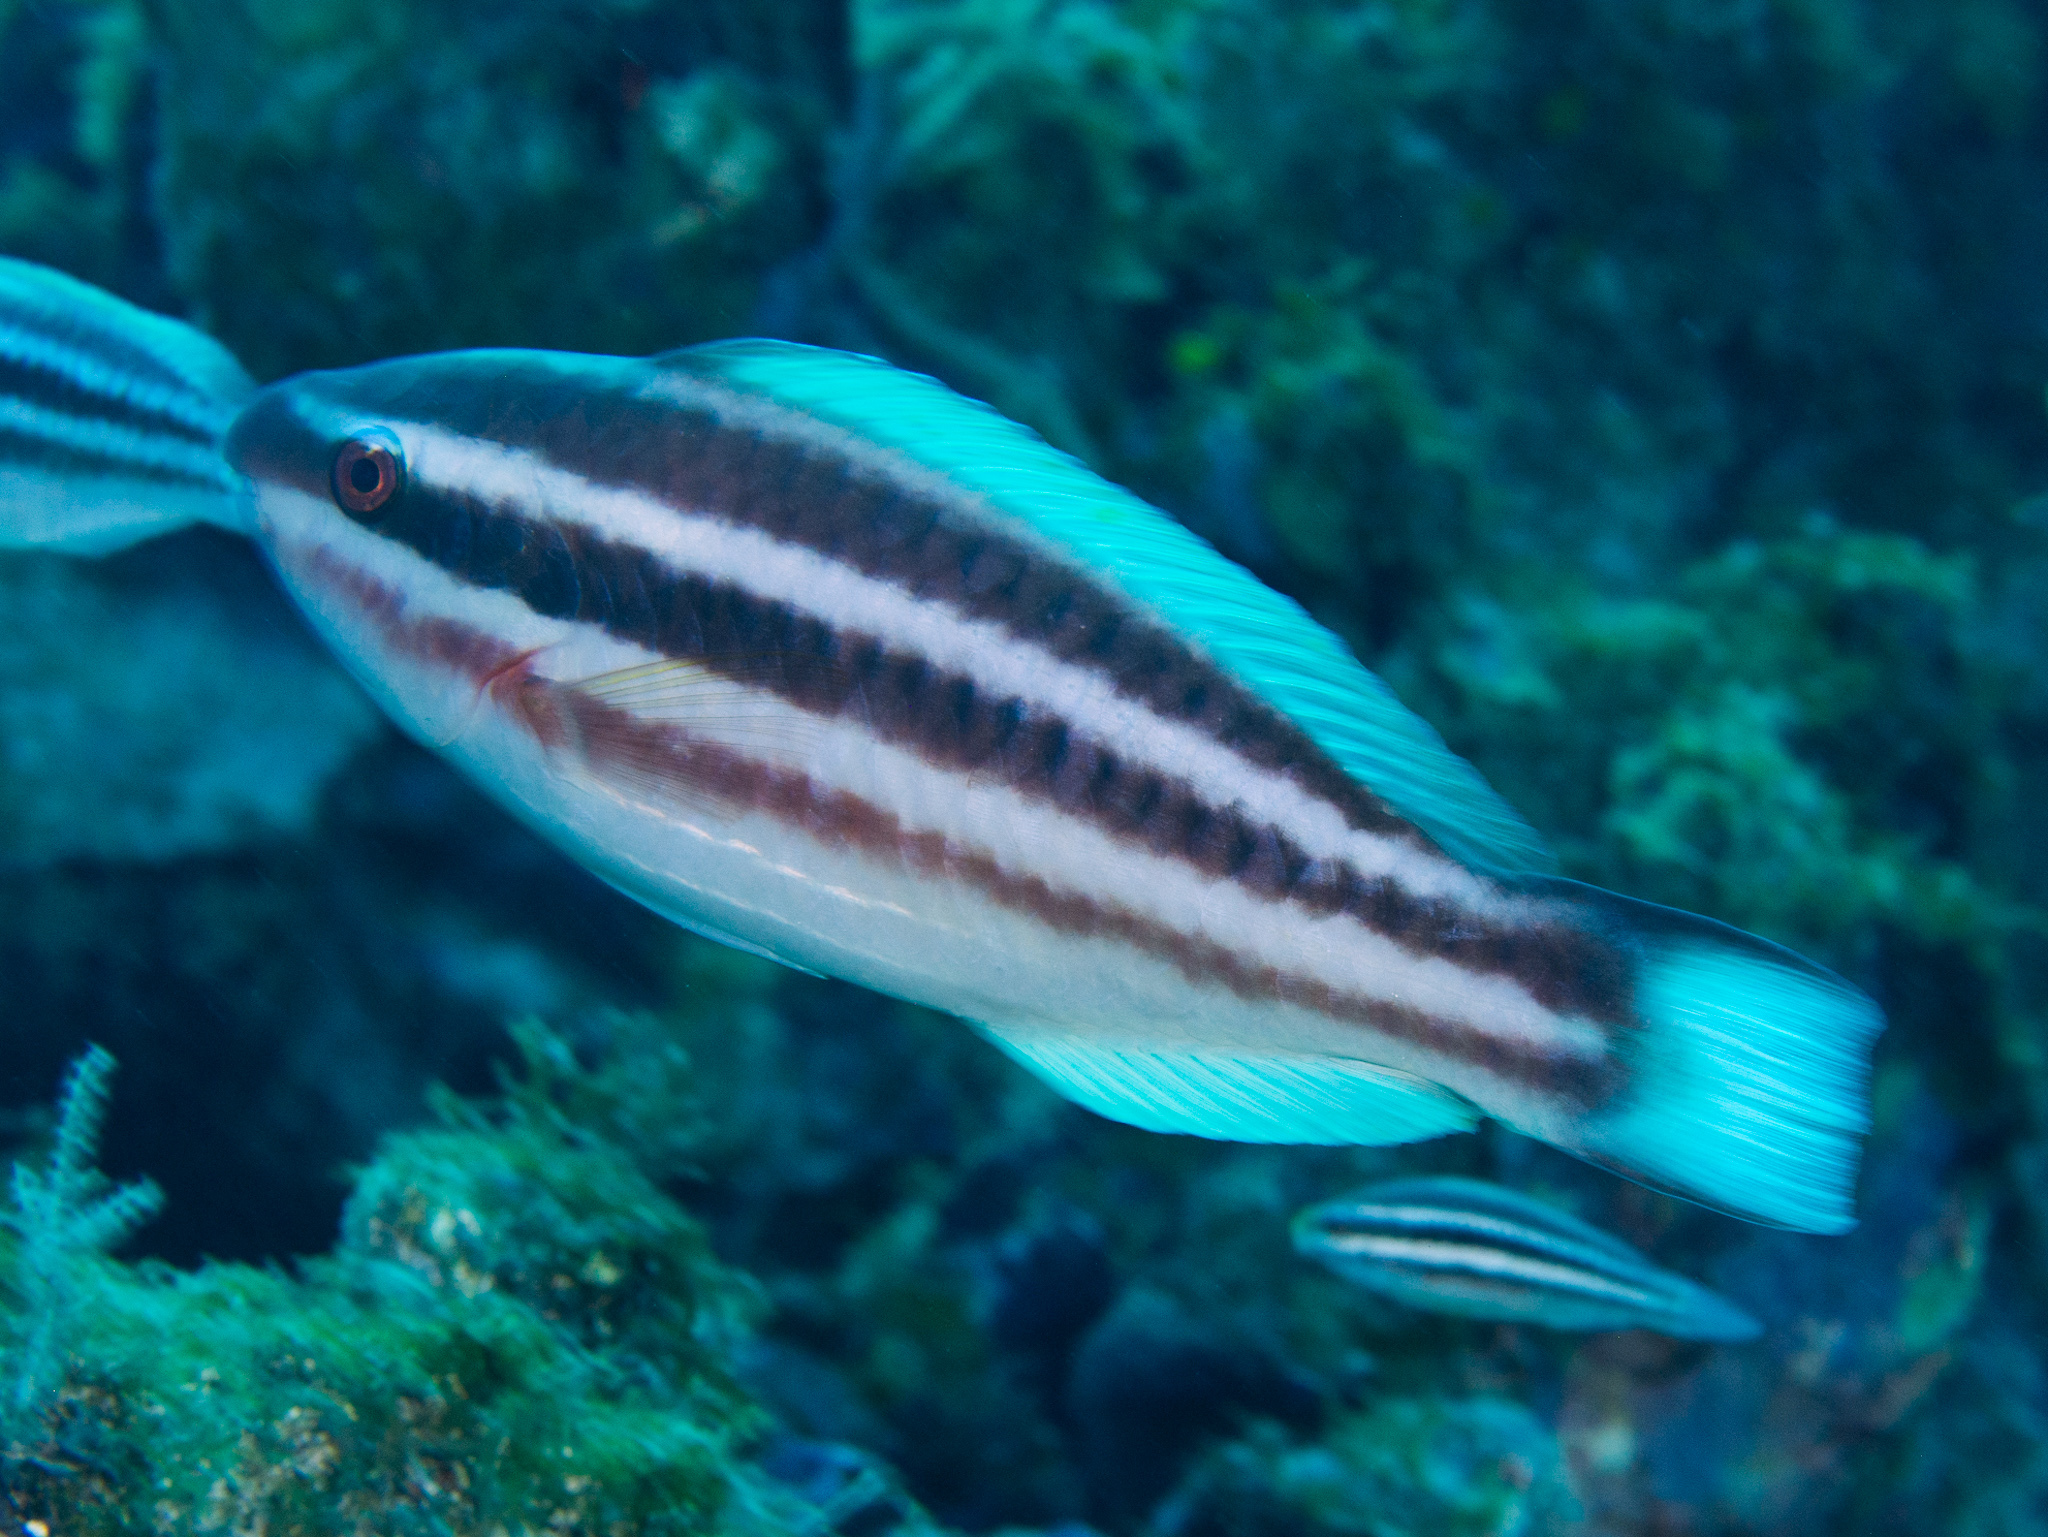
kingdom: Animalia
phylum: Chordata
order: Perciformes
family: Scaridae
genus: Scarus
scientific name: Scarus taeniopterus
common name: Princess parrotfish
